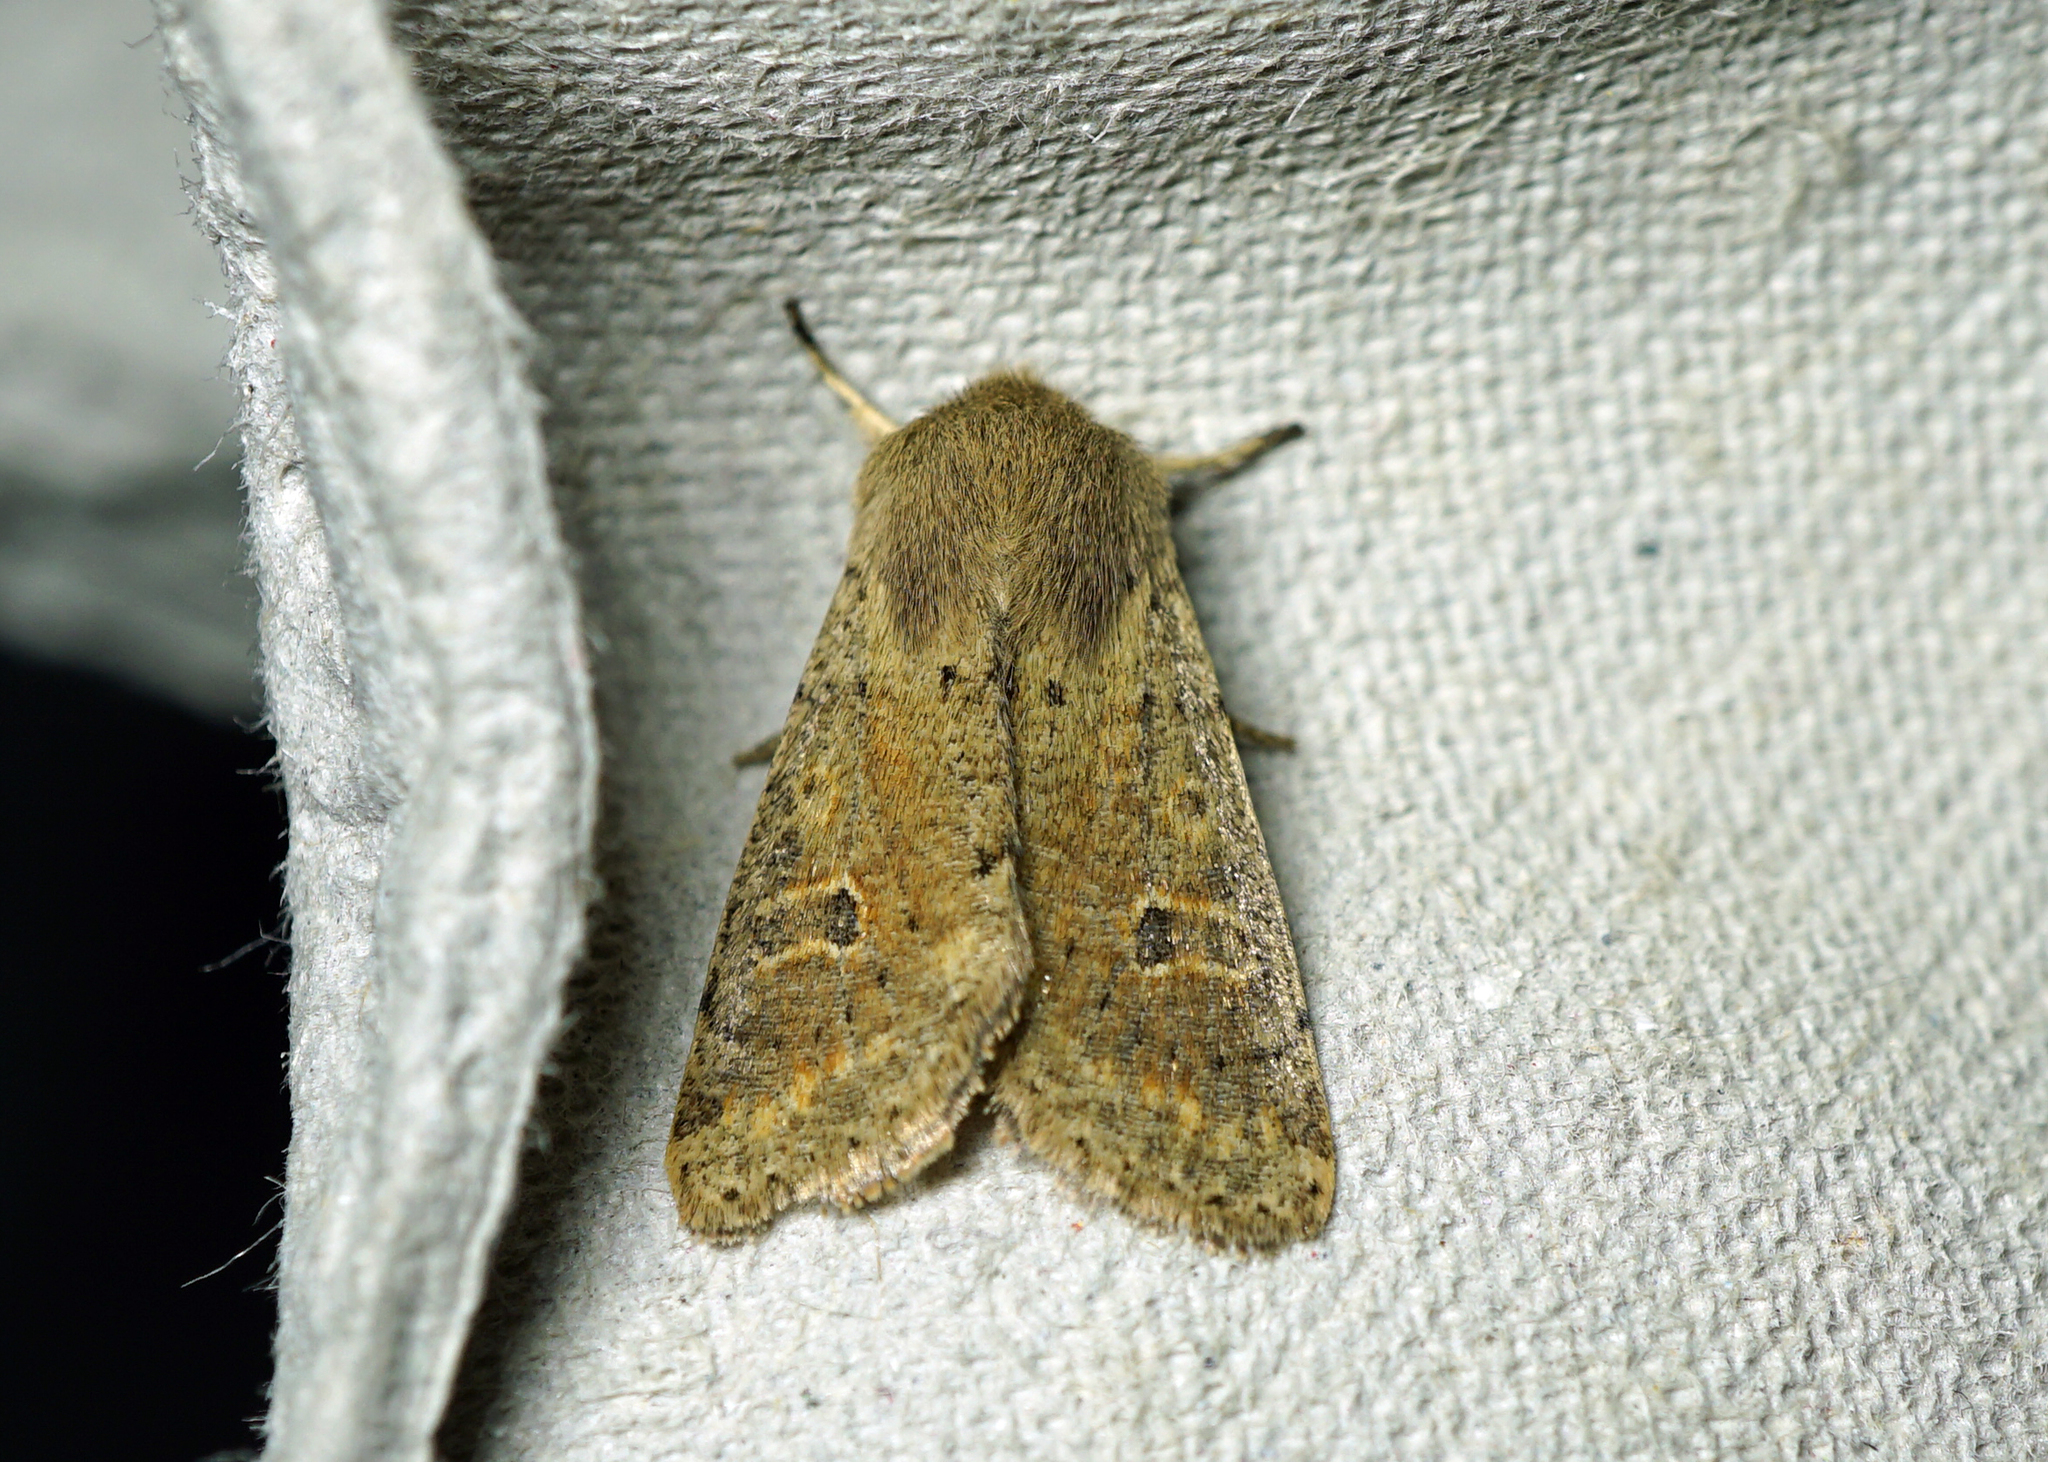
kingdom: Animalia
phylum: Arthropoda
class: Insecta
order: Lepidoptera
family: Noctuidae
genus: Orthosia
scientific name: Orthosia cruda
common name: Small quaker
